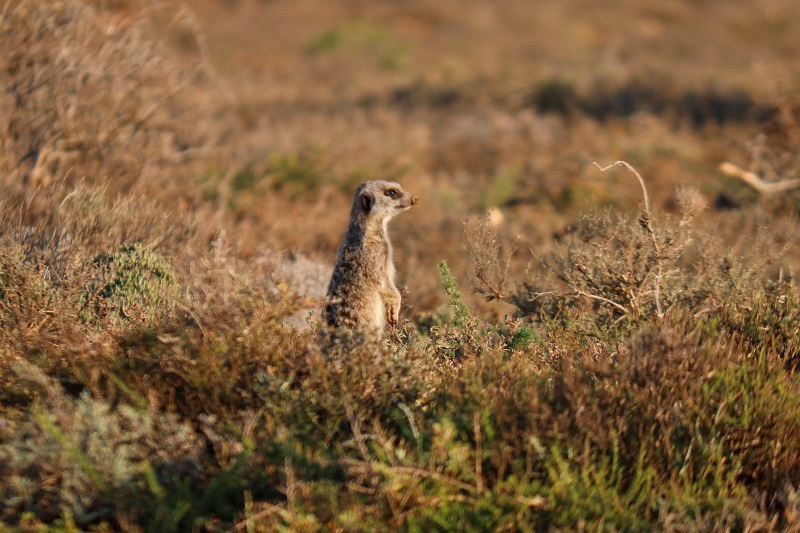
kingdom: Animalia
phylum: Chordata
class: Mammalia
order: Carnivora
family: Herpestidae
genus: Suricata
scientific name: Suricata suricatta
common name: Meerkat
